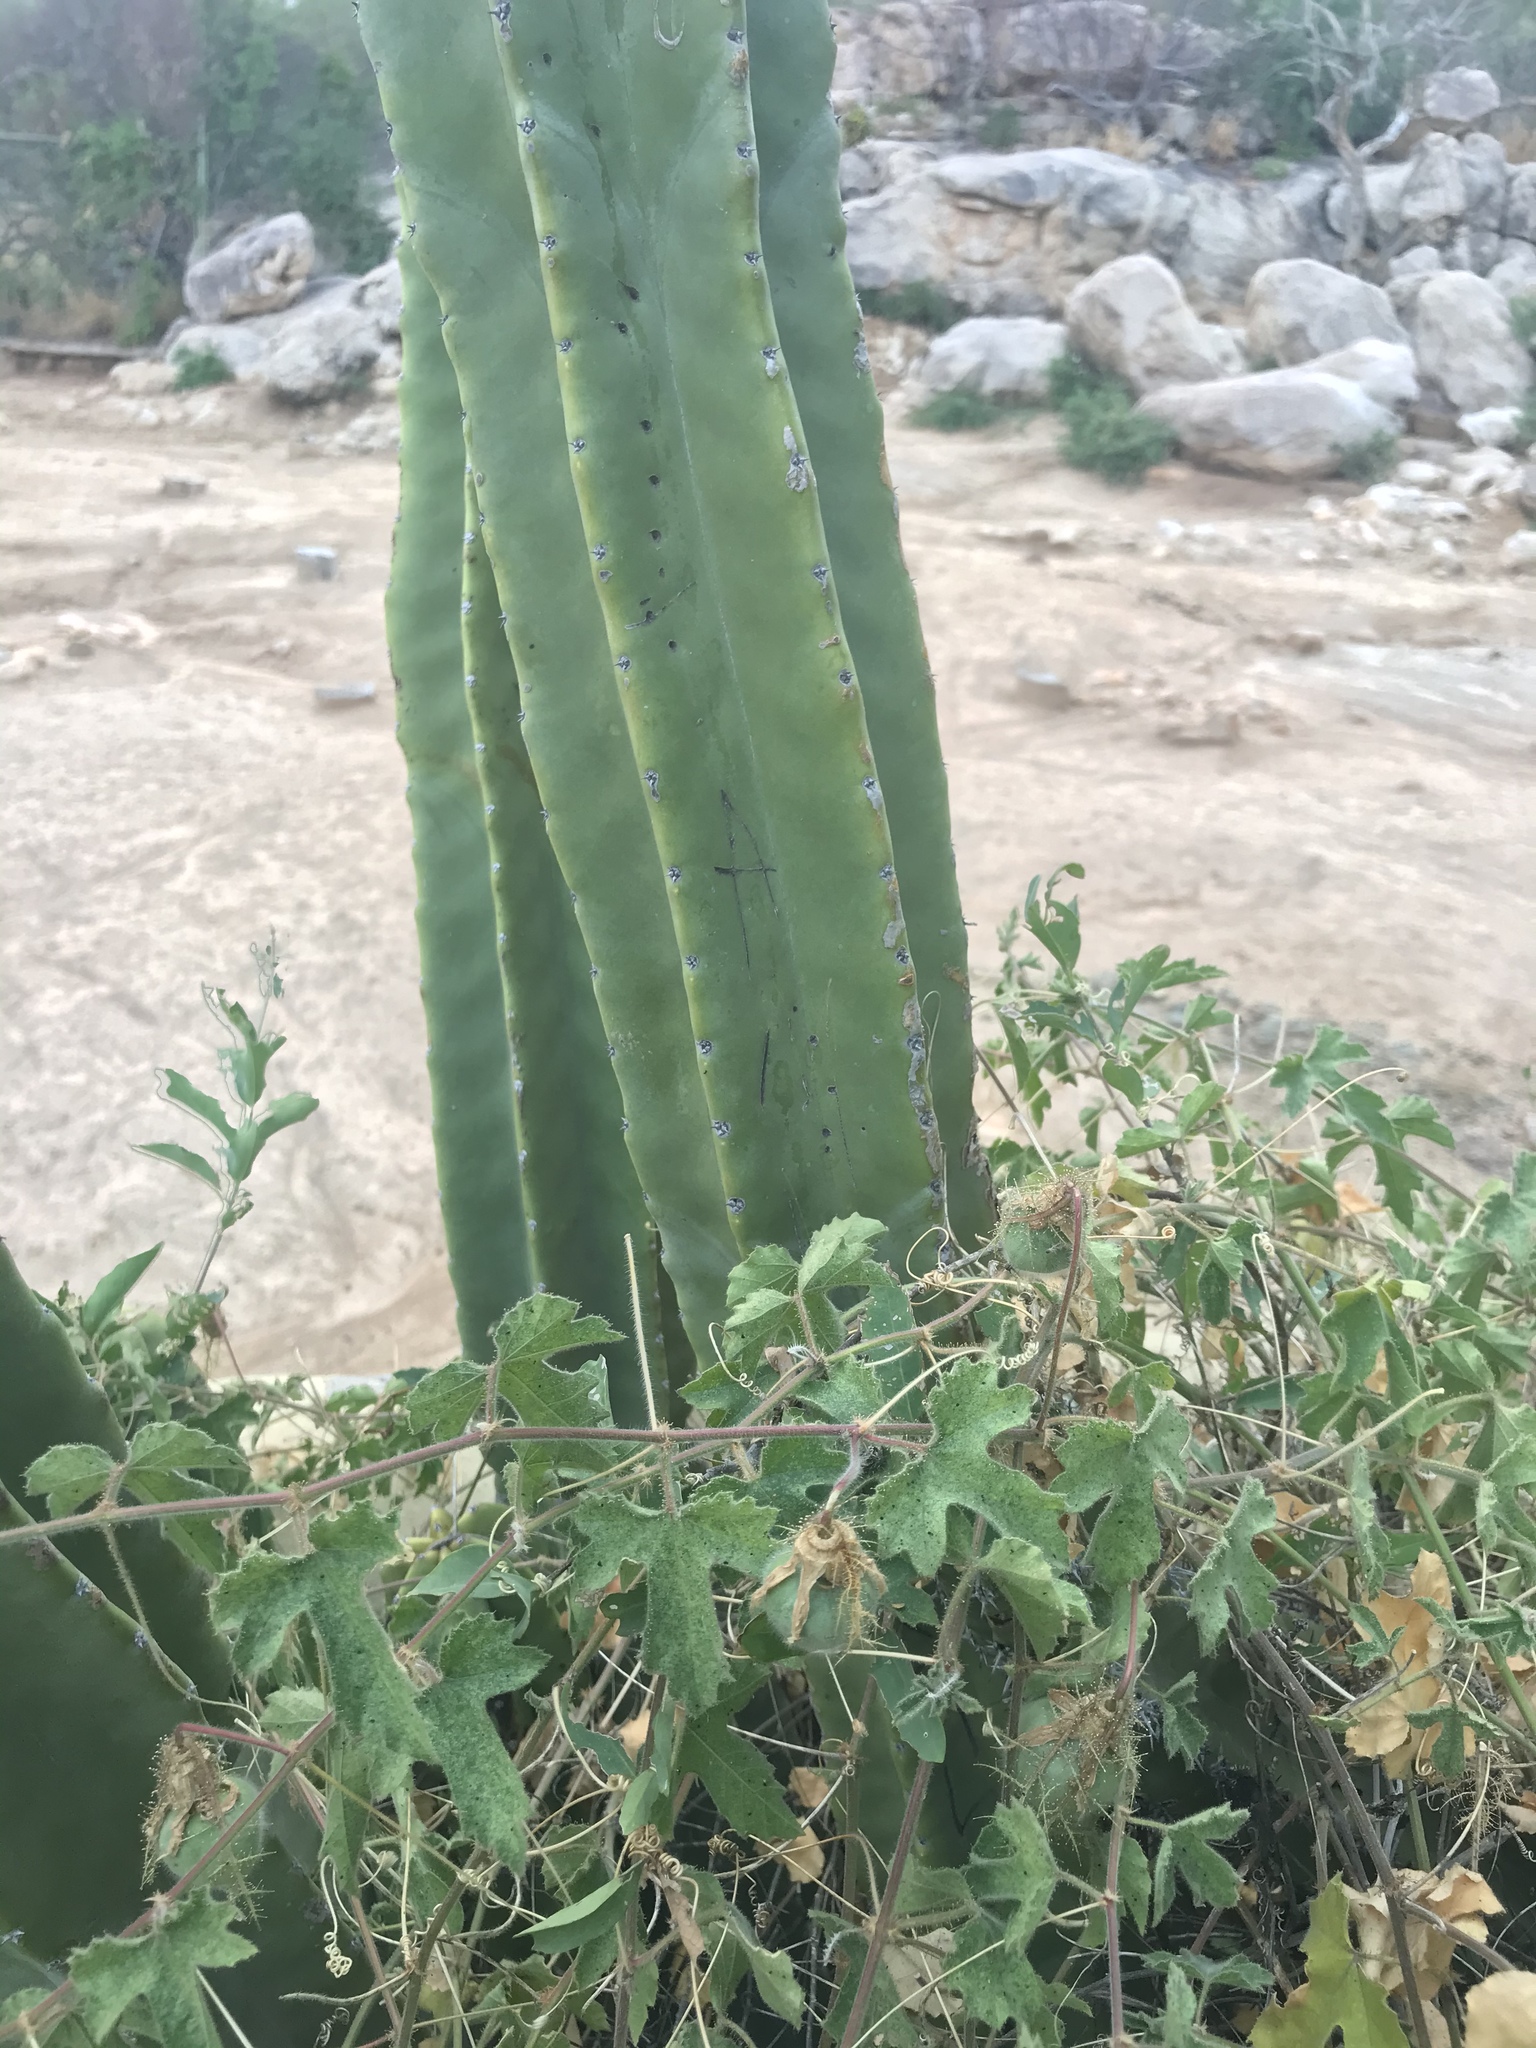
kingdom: Plantae
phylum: Tracheophyta
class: Magnoliopsida
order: Malpighiales
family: Passifloraceae
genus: Passiflora
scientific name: Passiflora arizonica
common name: Arizona passionflower
